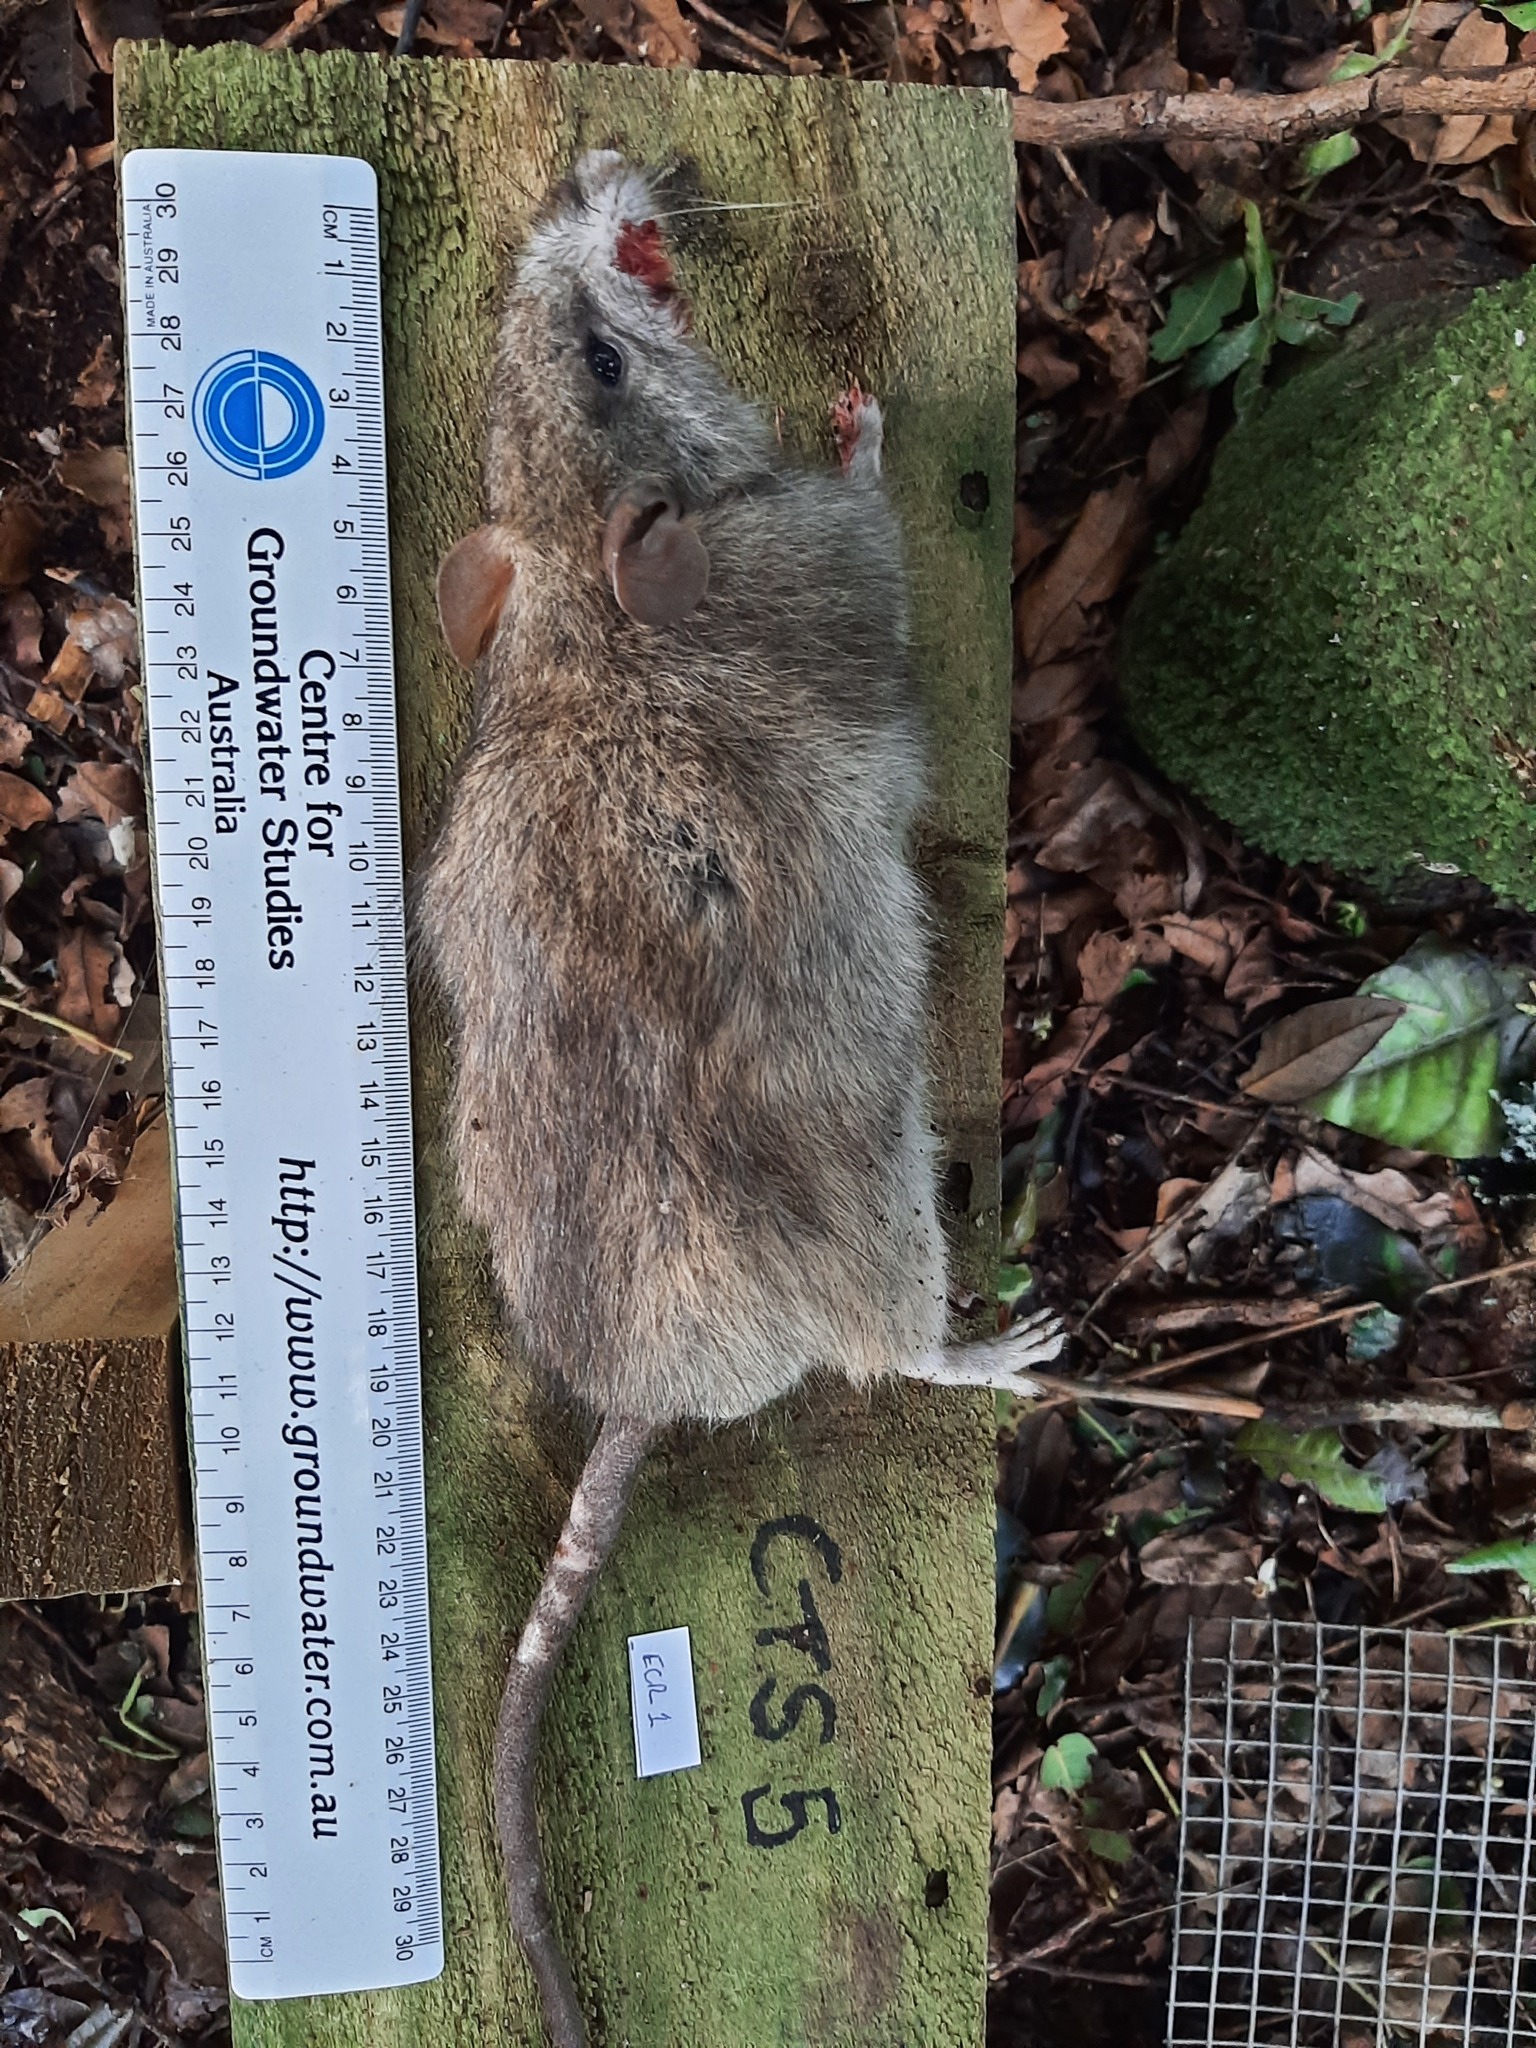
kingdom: Animalia
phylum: Chordata
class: Mammalia
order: Rodentia
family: Muridae
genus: Rattus
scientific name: Rattus rattus
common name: Black rat
